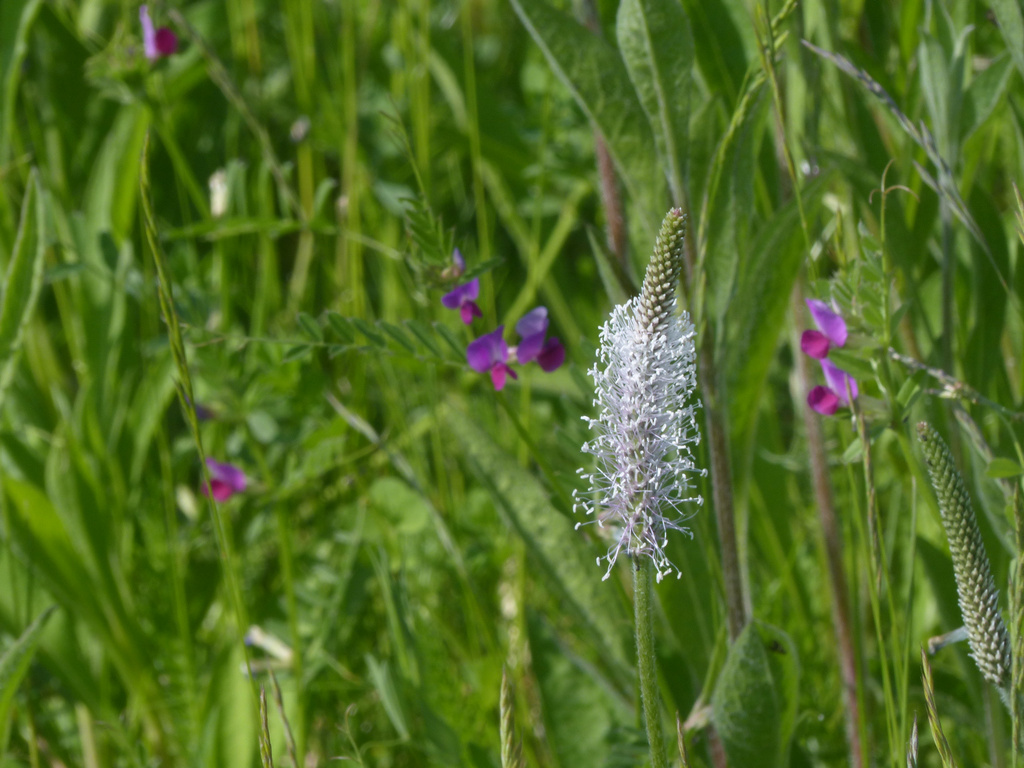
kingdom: Plantae
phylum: Tracheophyta
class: Magnoliopsida
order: Lamiales
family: Plantaginaceae
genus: Plantago
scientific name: Plantago media
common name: Hoary plantain
